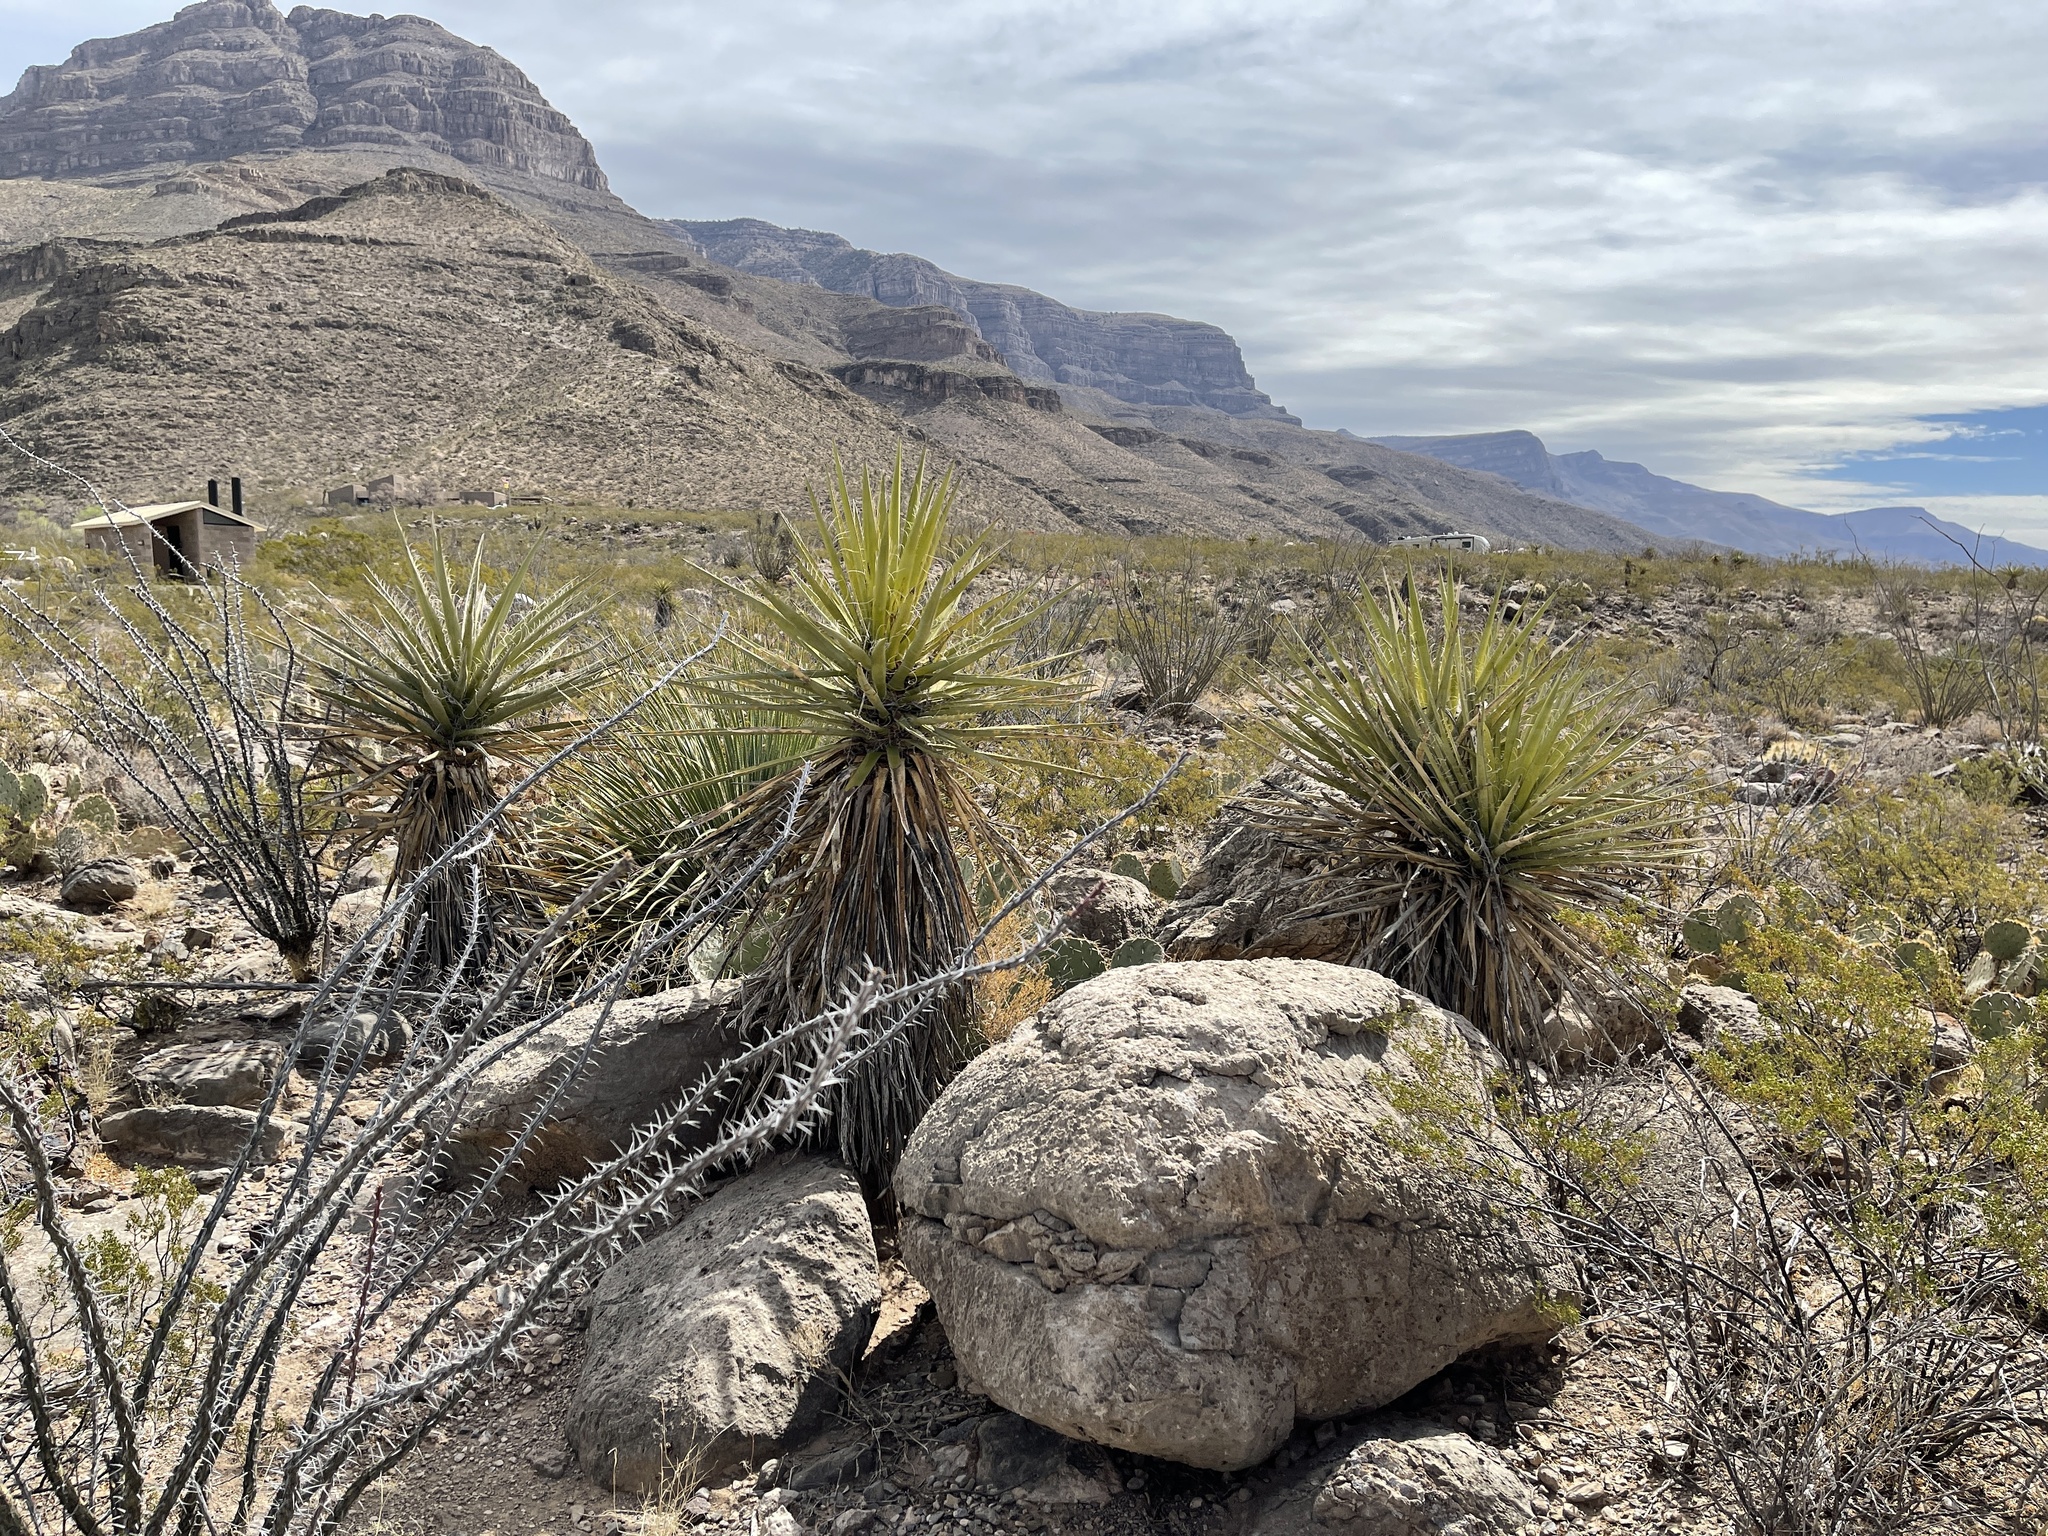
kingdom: Plantae
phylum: Tracheophyta
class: Liliopsida
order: Asparagales
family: Asparagaceae
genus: Yucca
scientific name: Yucca treculiana
